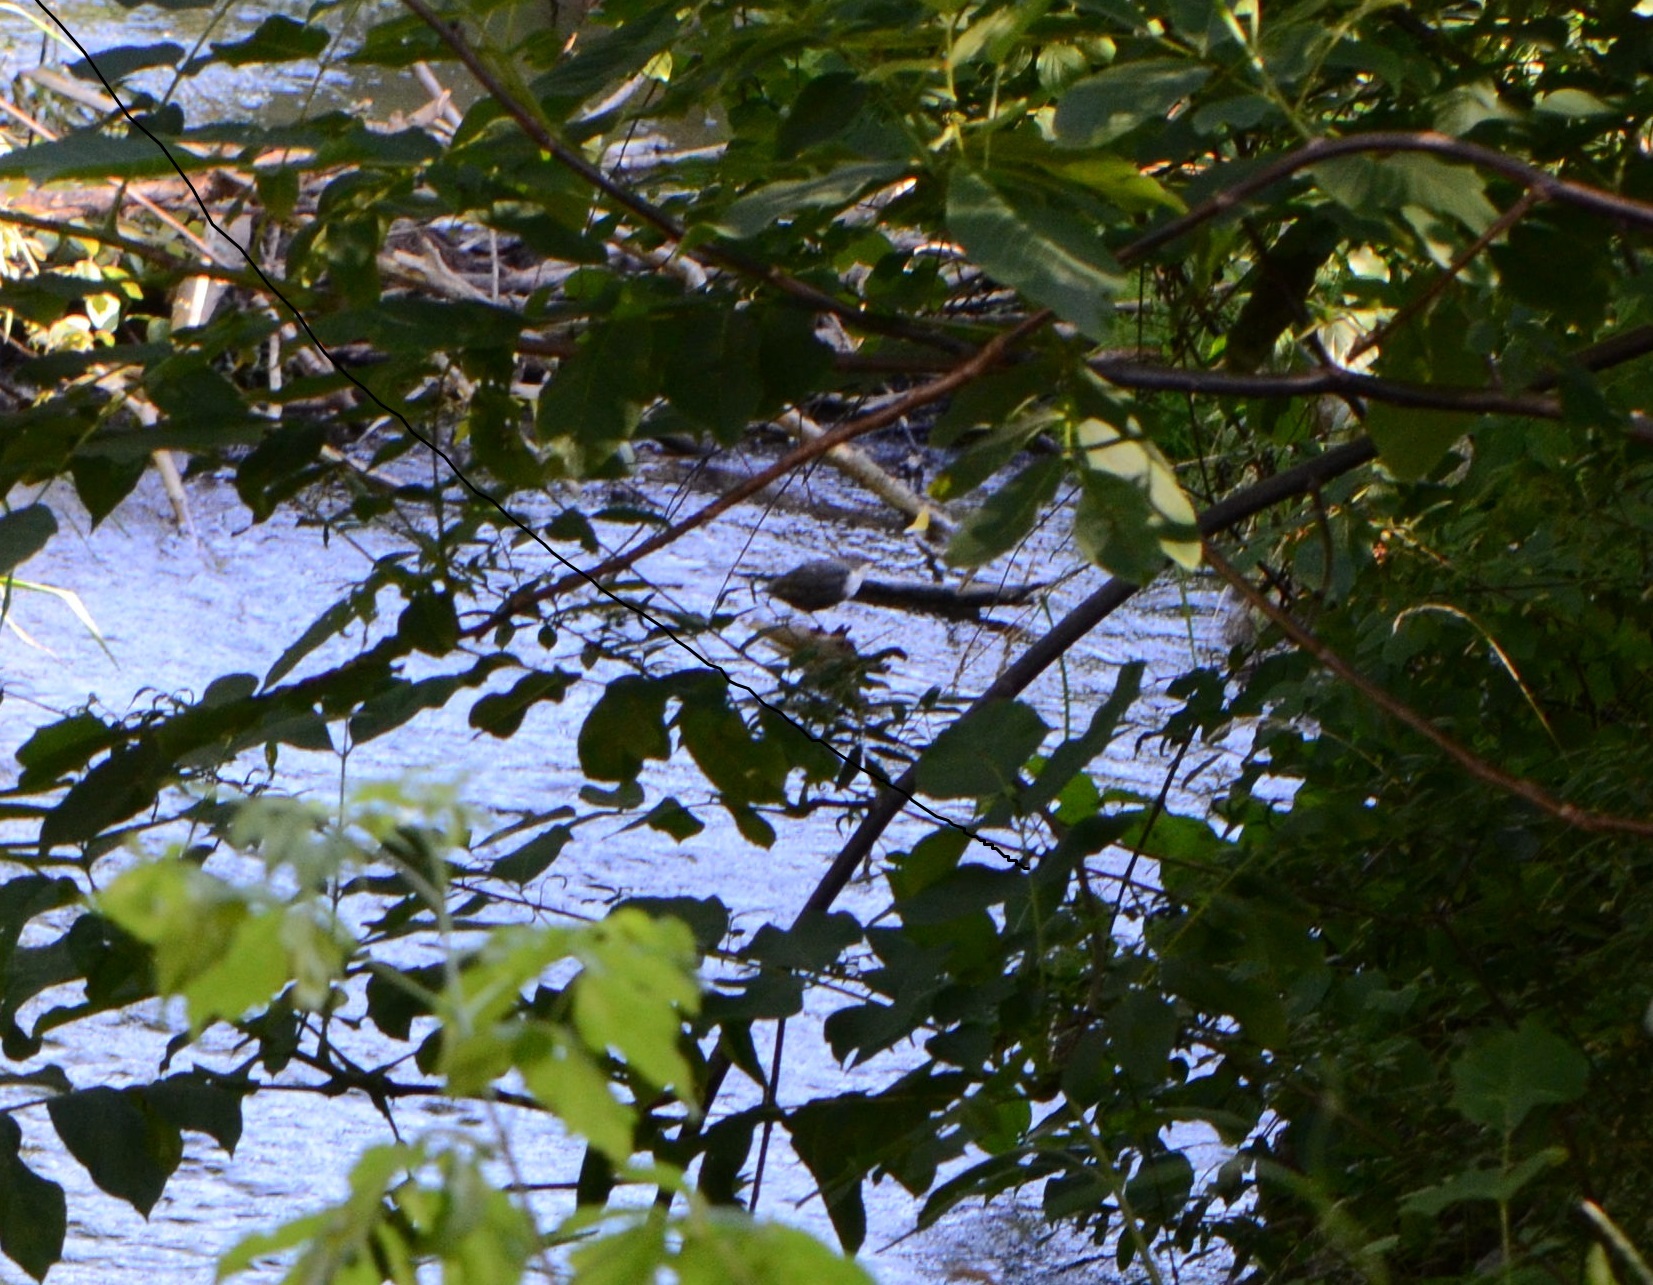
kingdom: Animalia
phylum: Chordata
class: Aves
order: Passeriformes
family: Cinclidae
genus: Cinclus
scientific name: Cinclus cinclus
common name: White-throated dipper
